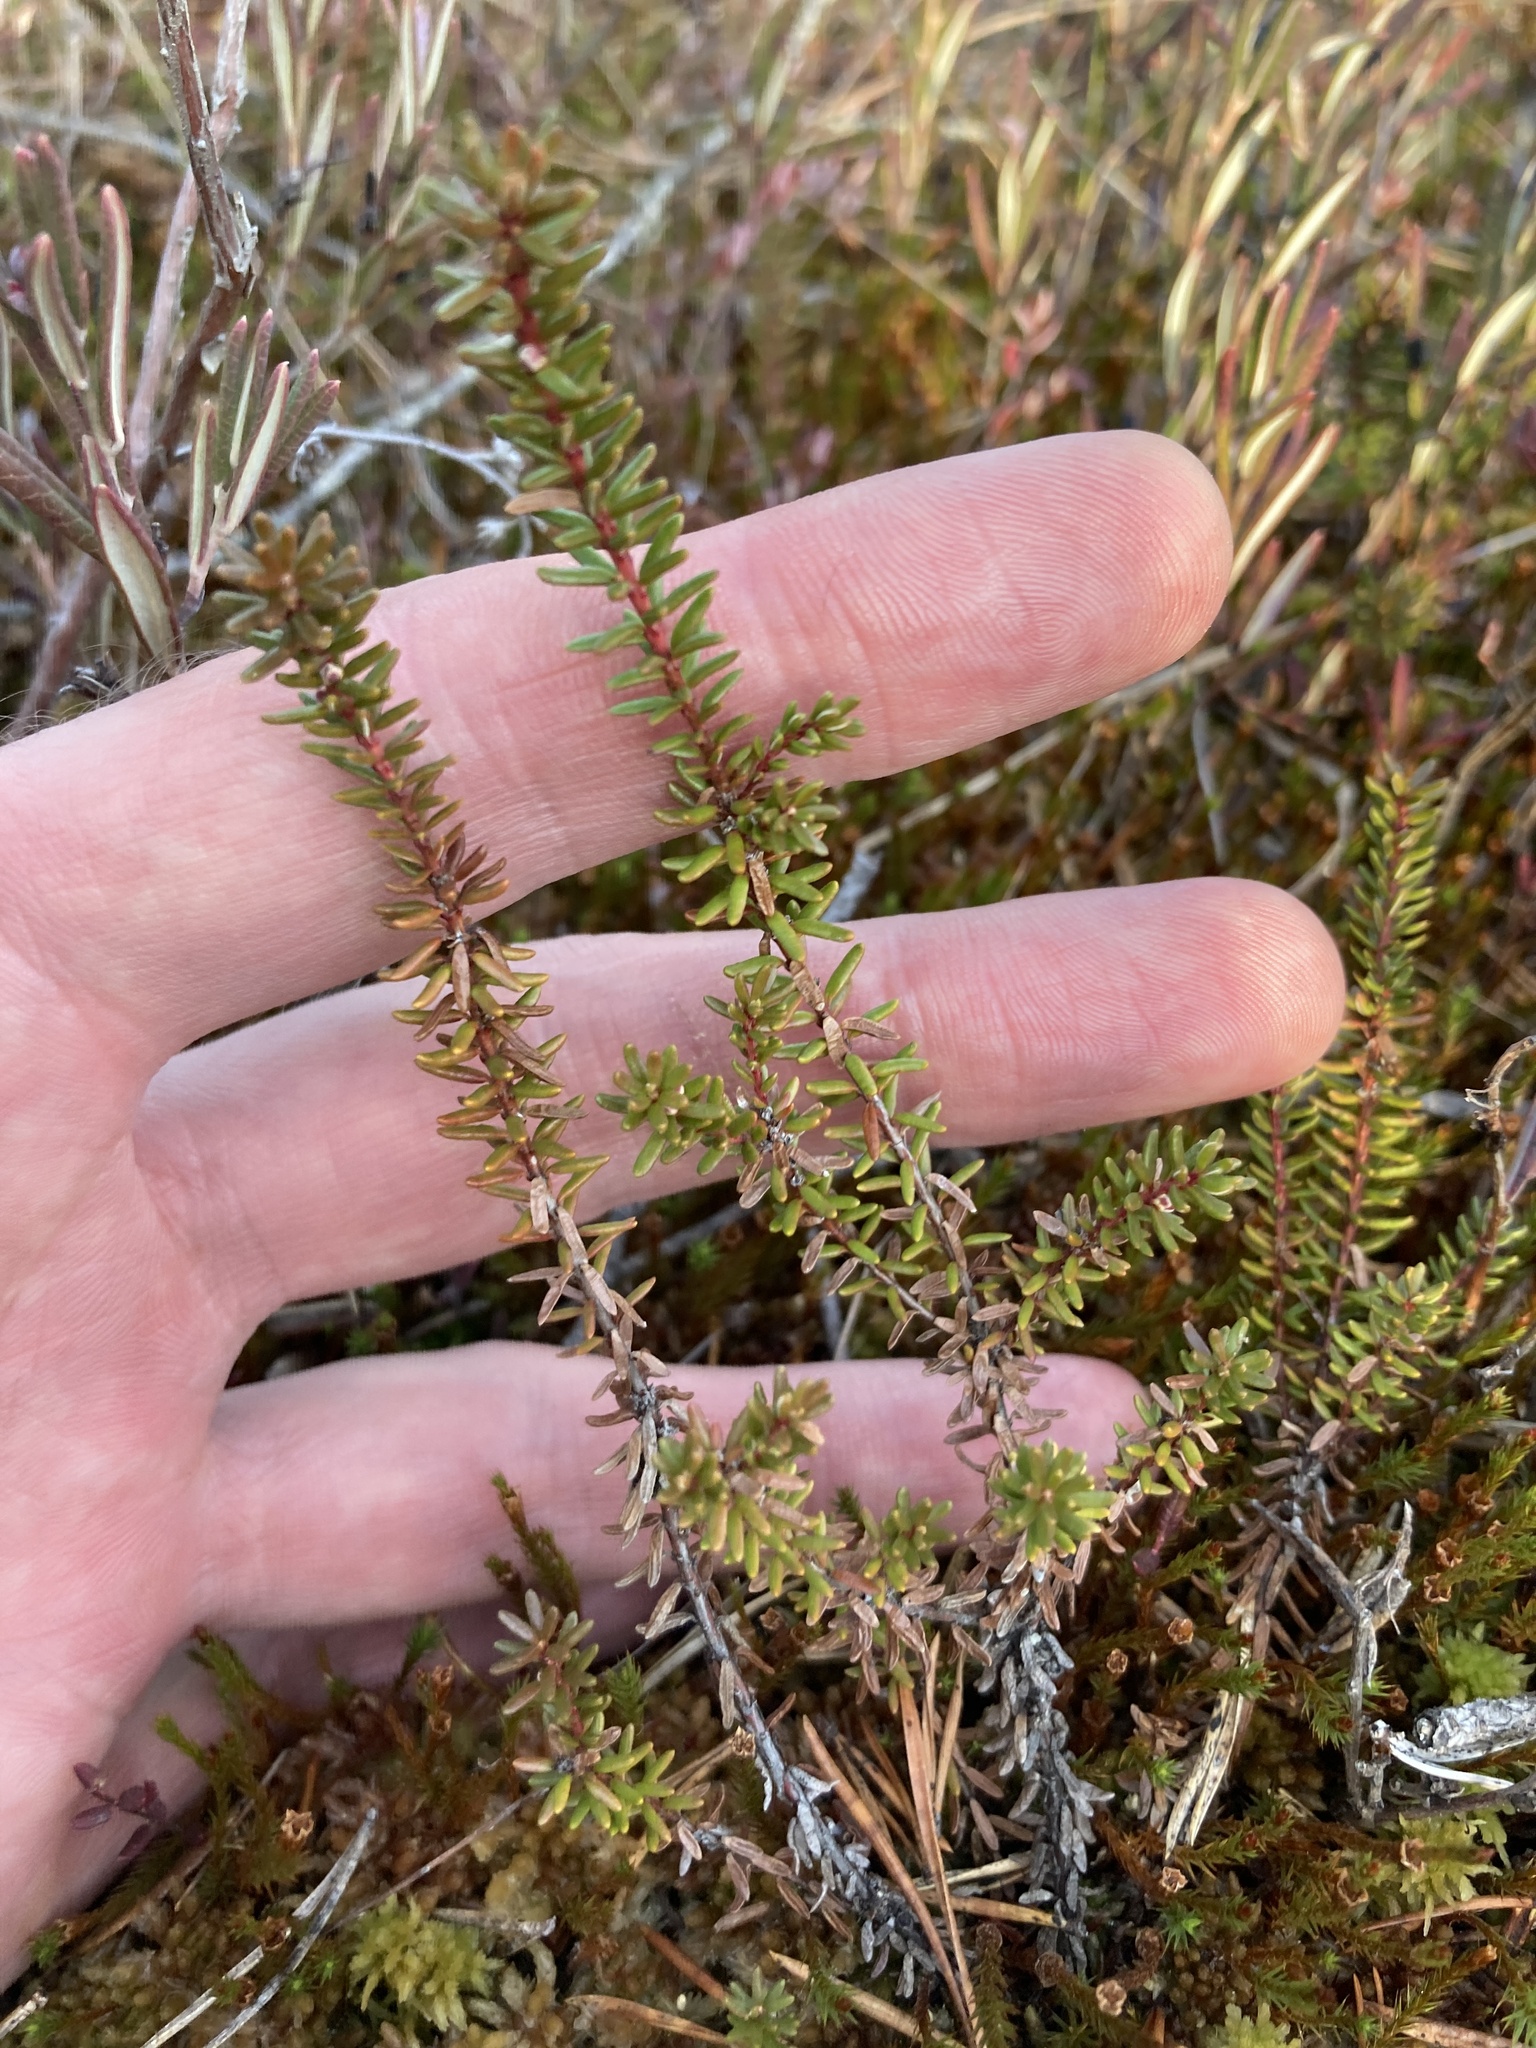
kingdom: Plantae
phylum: Tracheophyta
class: Magnoliopsida
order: Ericales
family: Ericaceae
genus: Empetrum
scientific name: Empetrum nigrum
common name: Black crowberry
